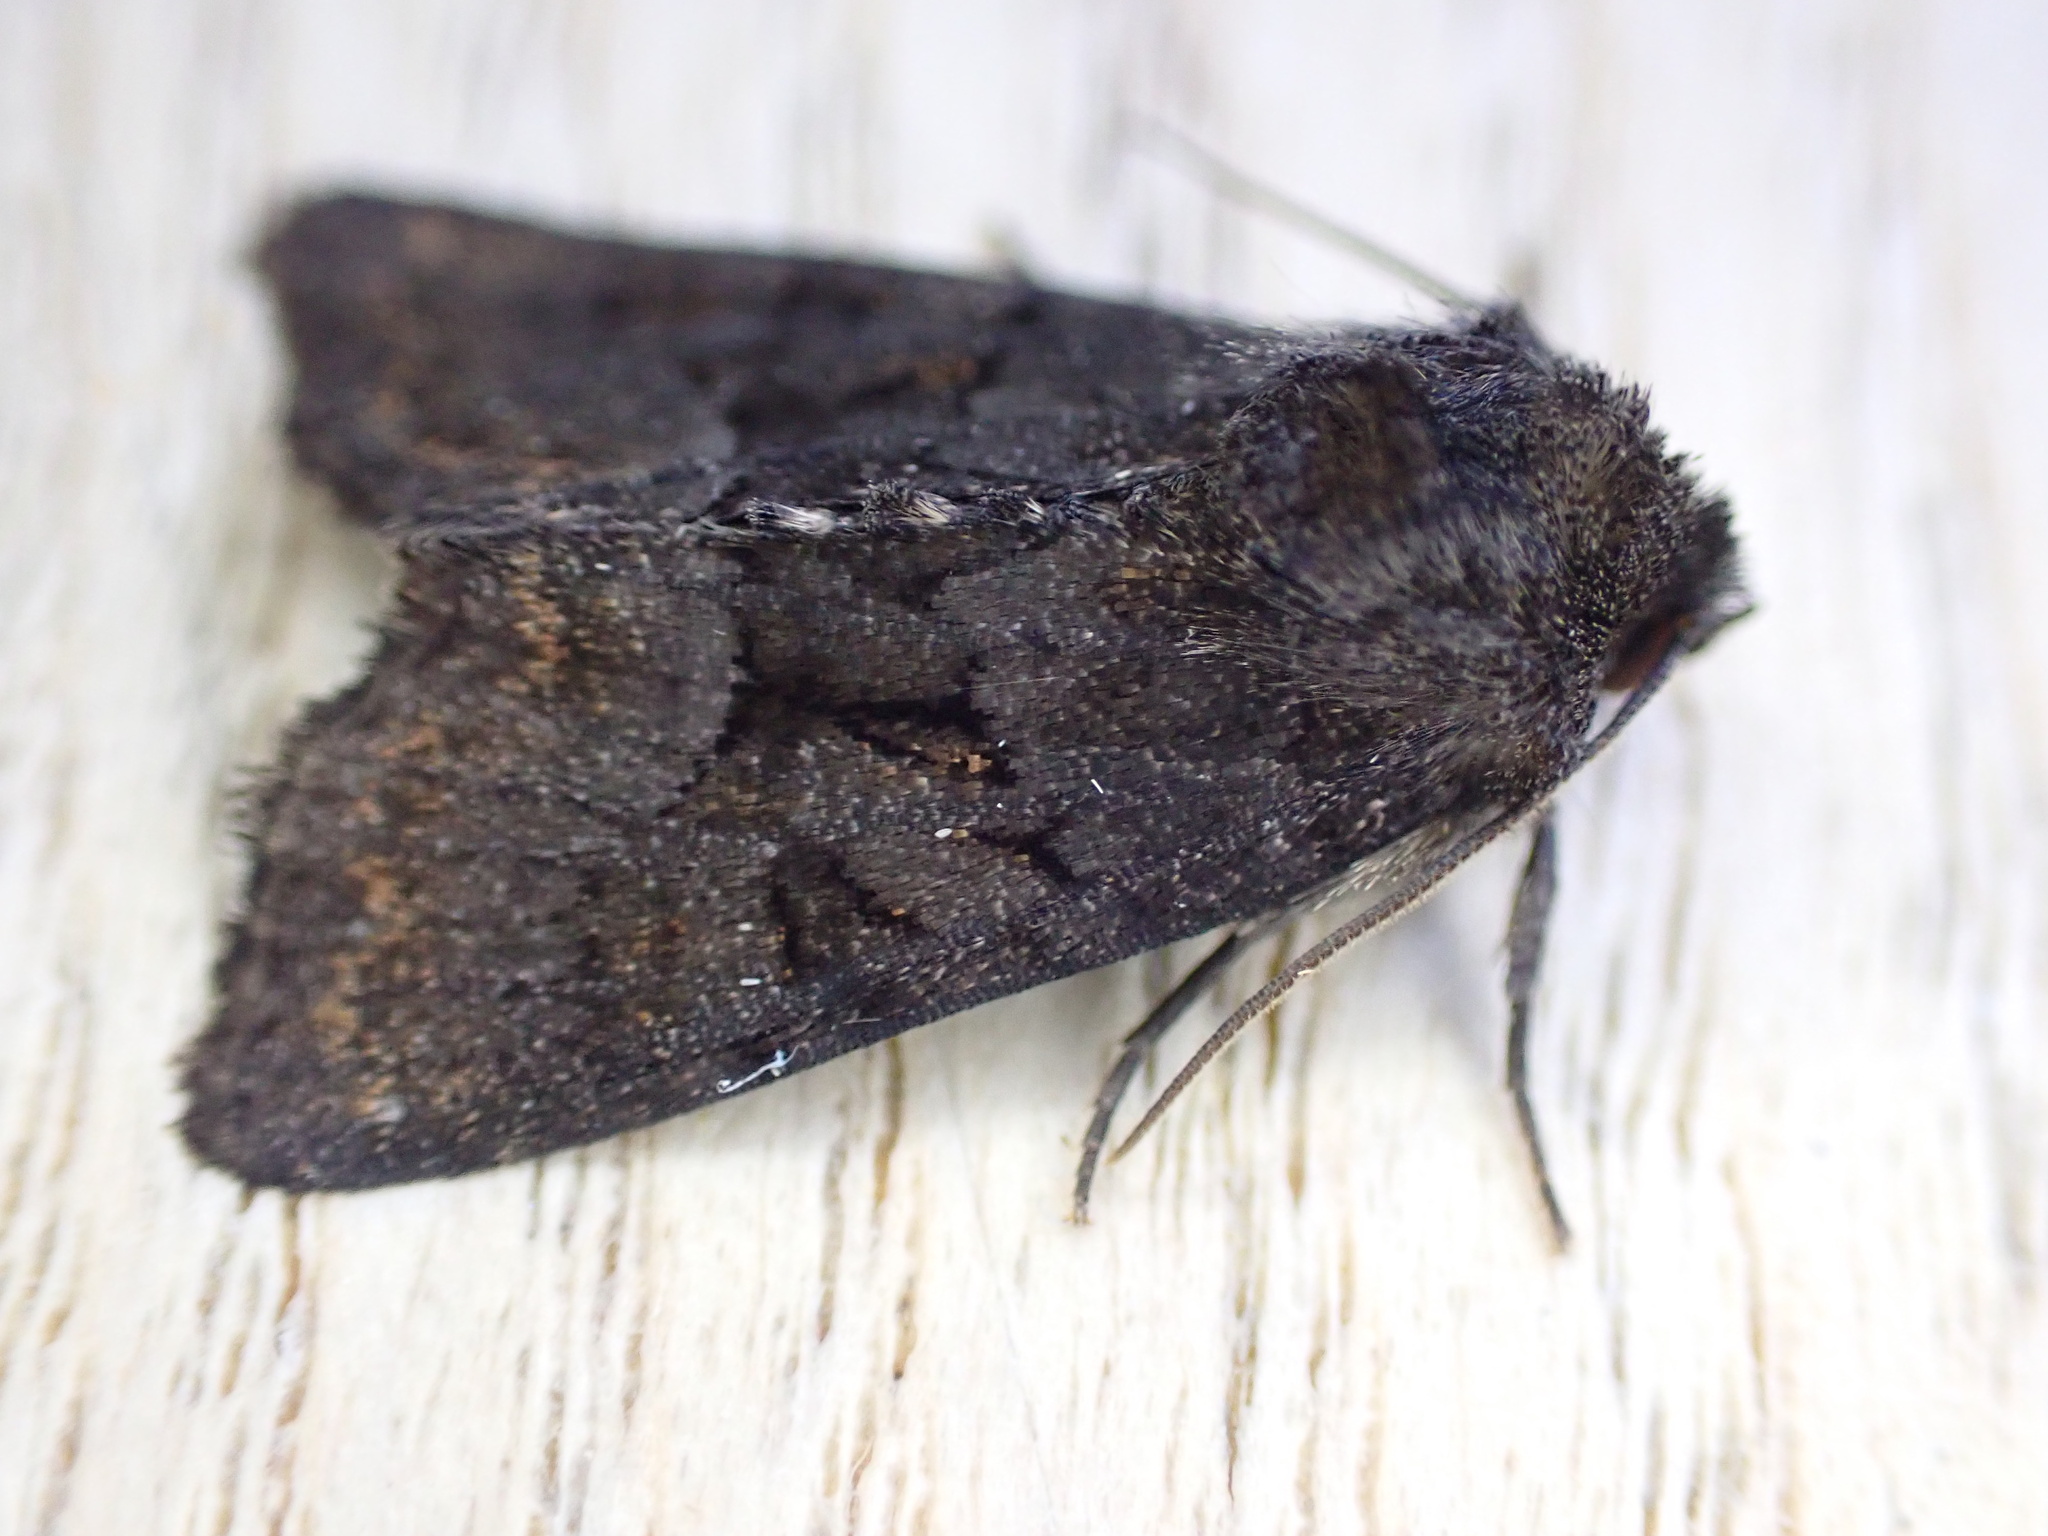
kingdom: Animalia
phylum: Arthropoda
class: Insecta
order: Lepidoptera
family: Noctuidae
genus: Oligia
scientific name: Oligia latruncula
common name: Tawny marbled minor
